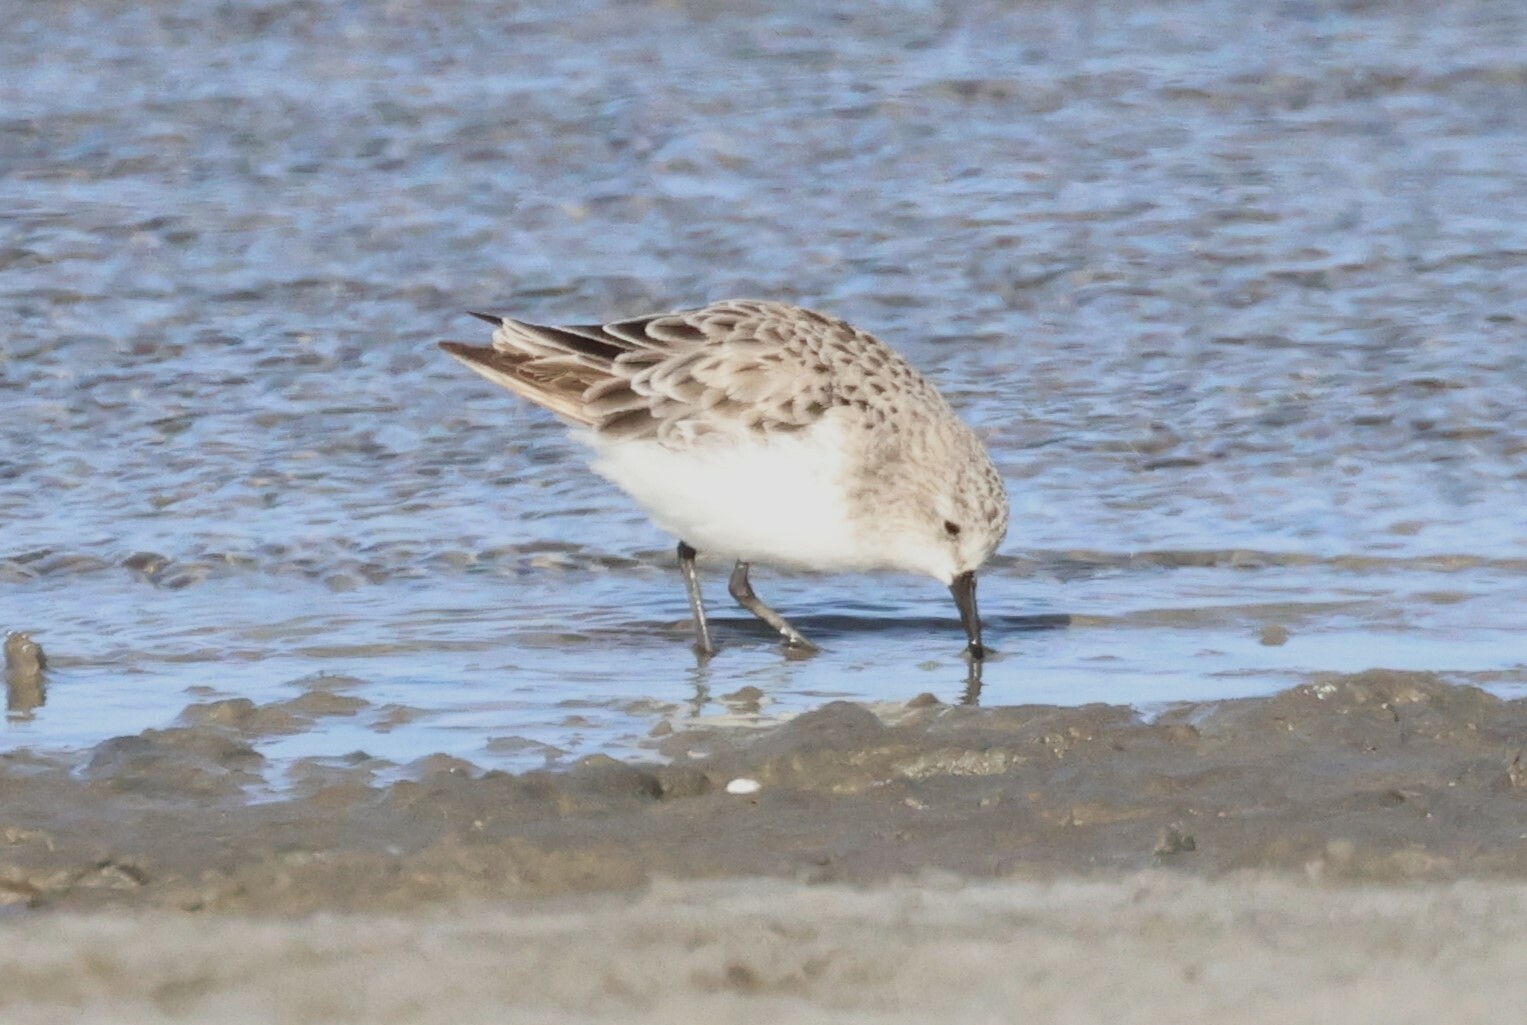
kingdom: Animalia
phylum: Chordata
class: Aves
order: Charadriiformes
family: Scolopacidae
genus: Calidris
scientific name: Calidris minuta
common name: Little stint
